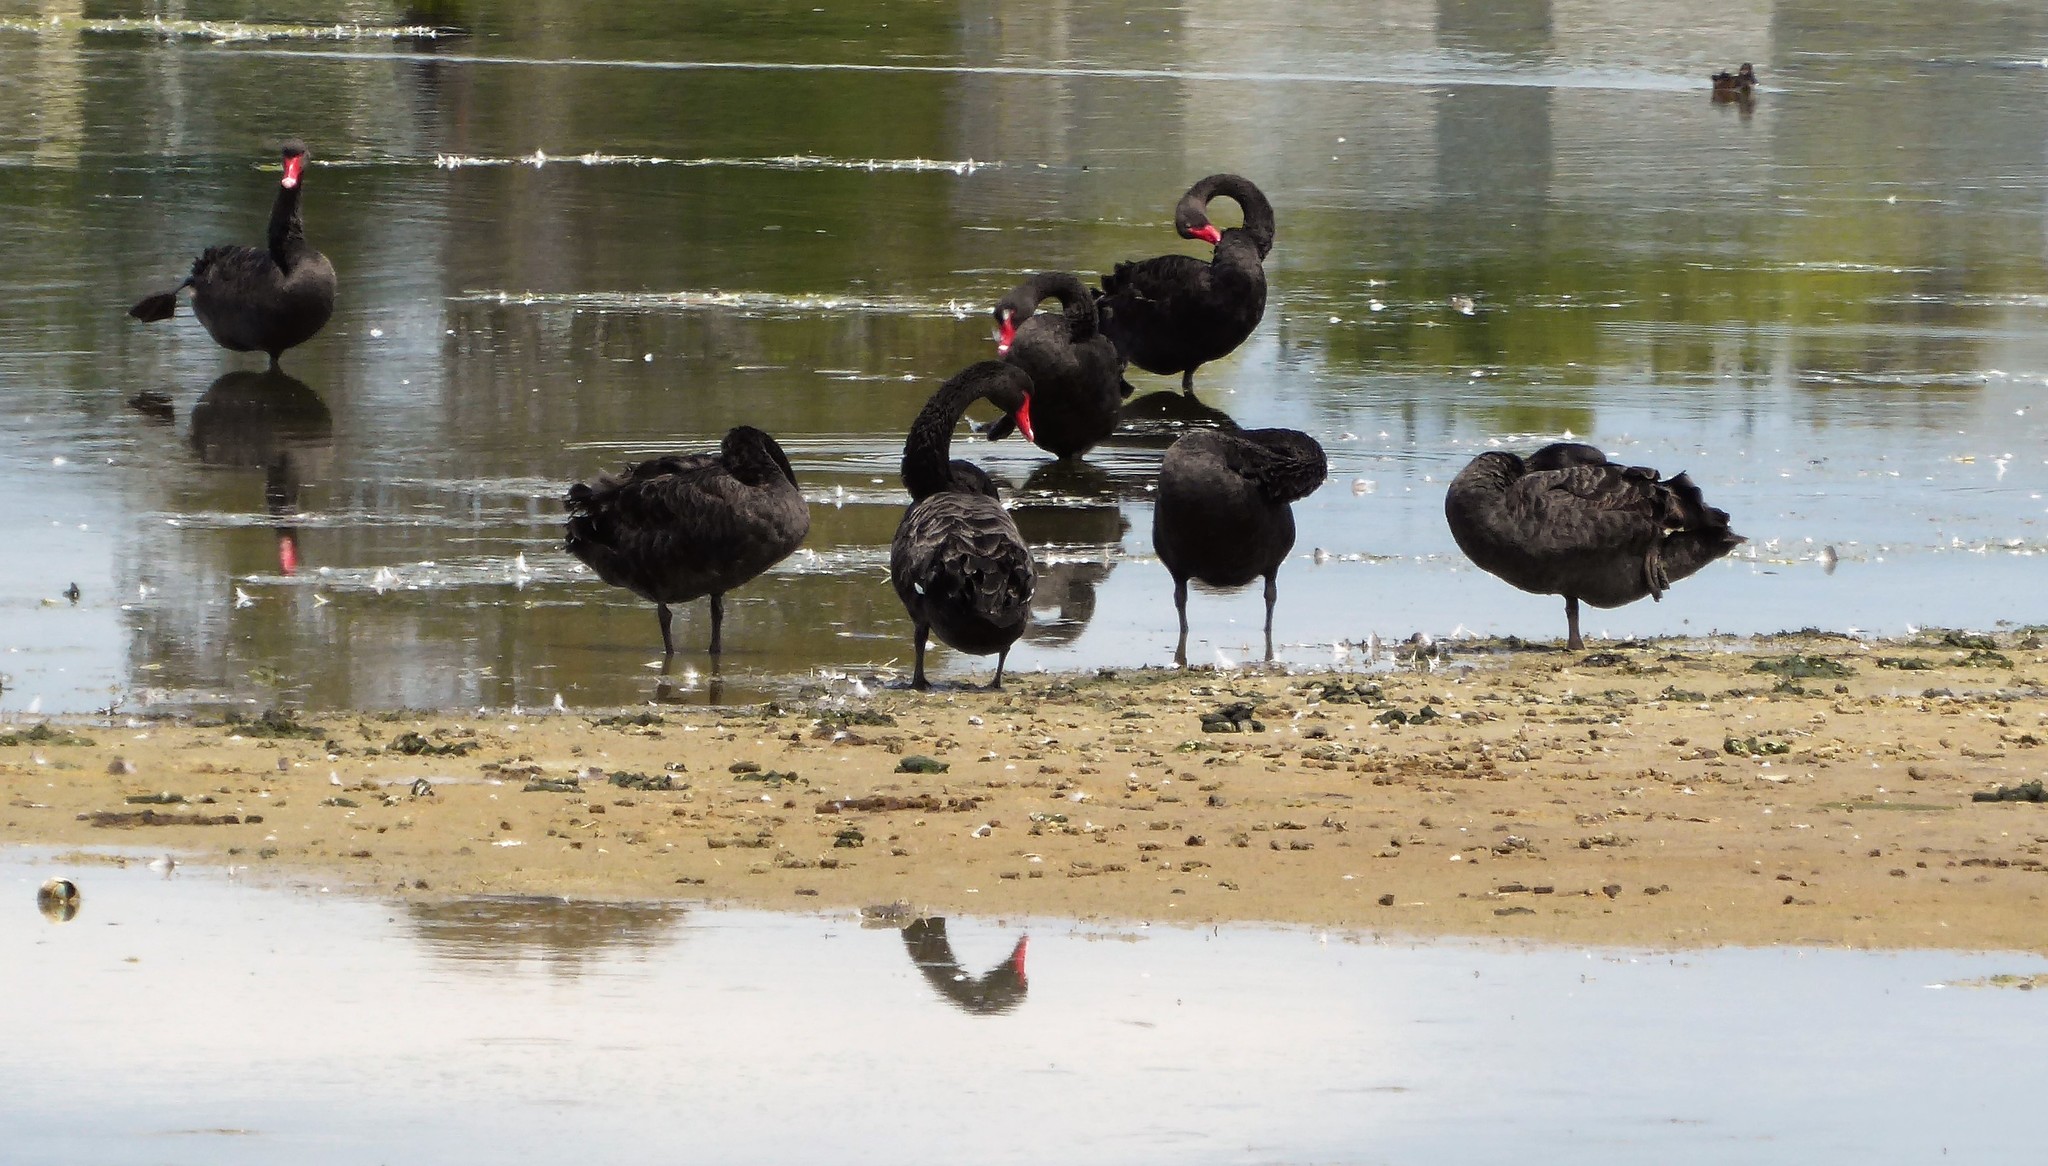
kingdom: Animalia
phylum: Chordata
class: Aves
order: Anseriformes
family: Anatidae
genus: Cygnus
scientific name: Cygnus atratus
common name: Black swan
